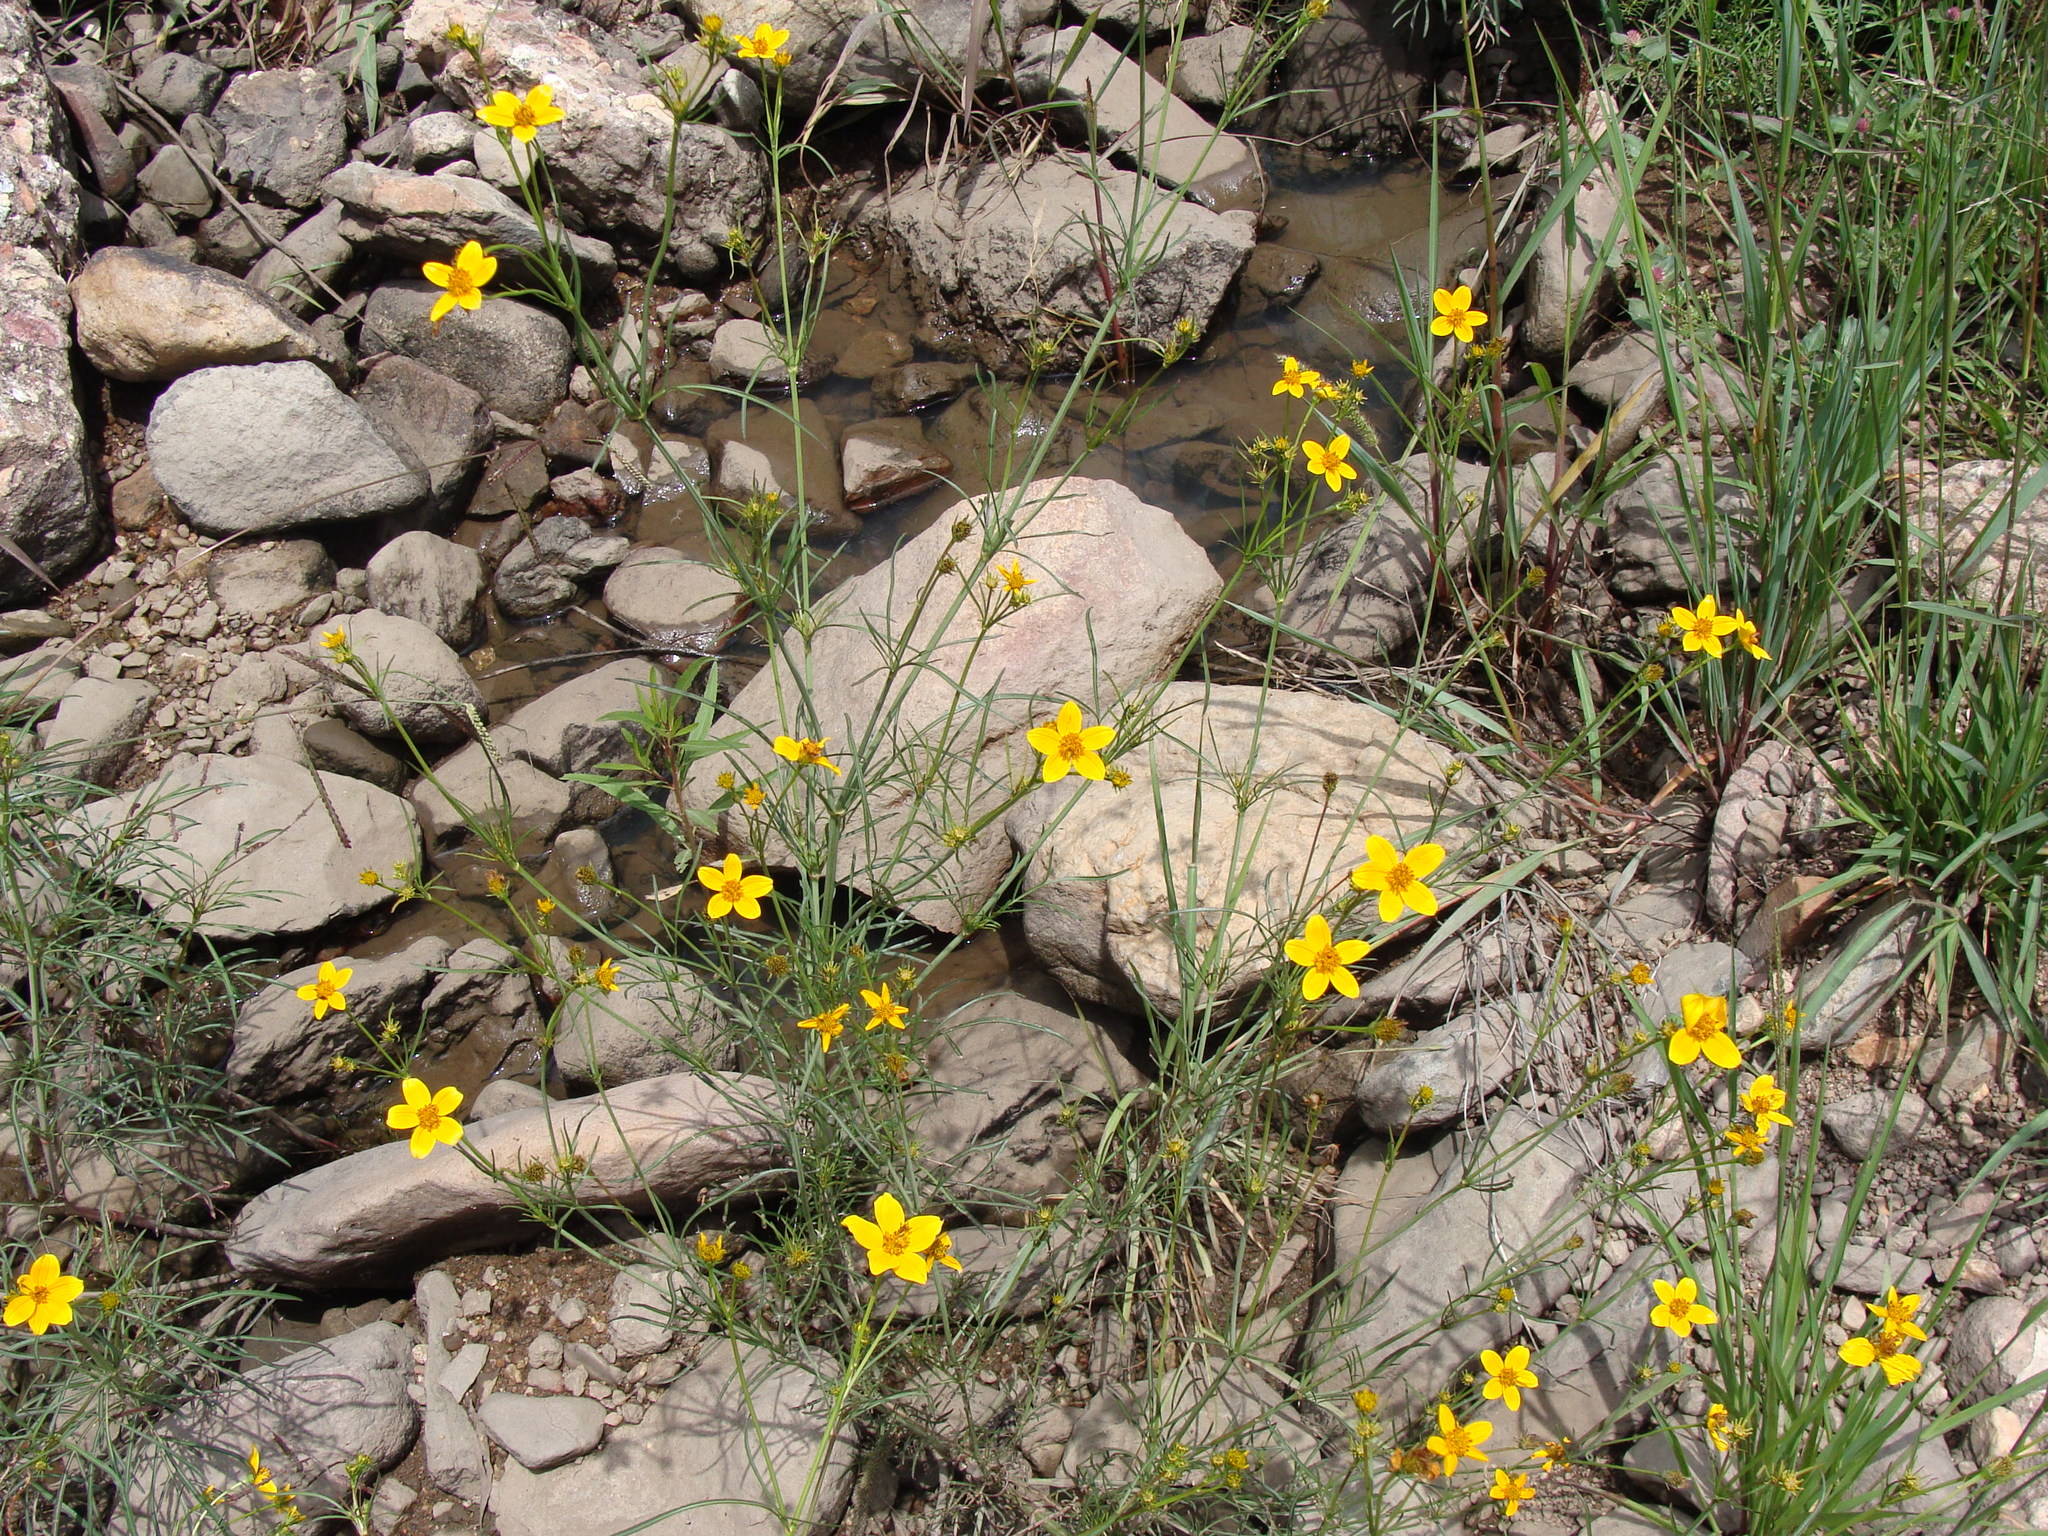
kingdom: Plantae
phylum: Tracheophyta
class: Magnoliopsida
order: Asterales
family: Asteraceae
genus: Bidens
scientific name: Bidens aurea
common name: Arizona beggar-ticks
